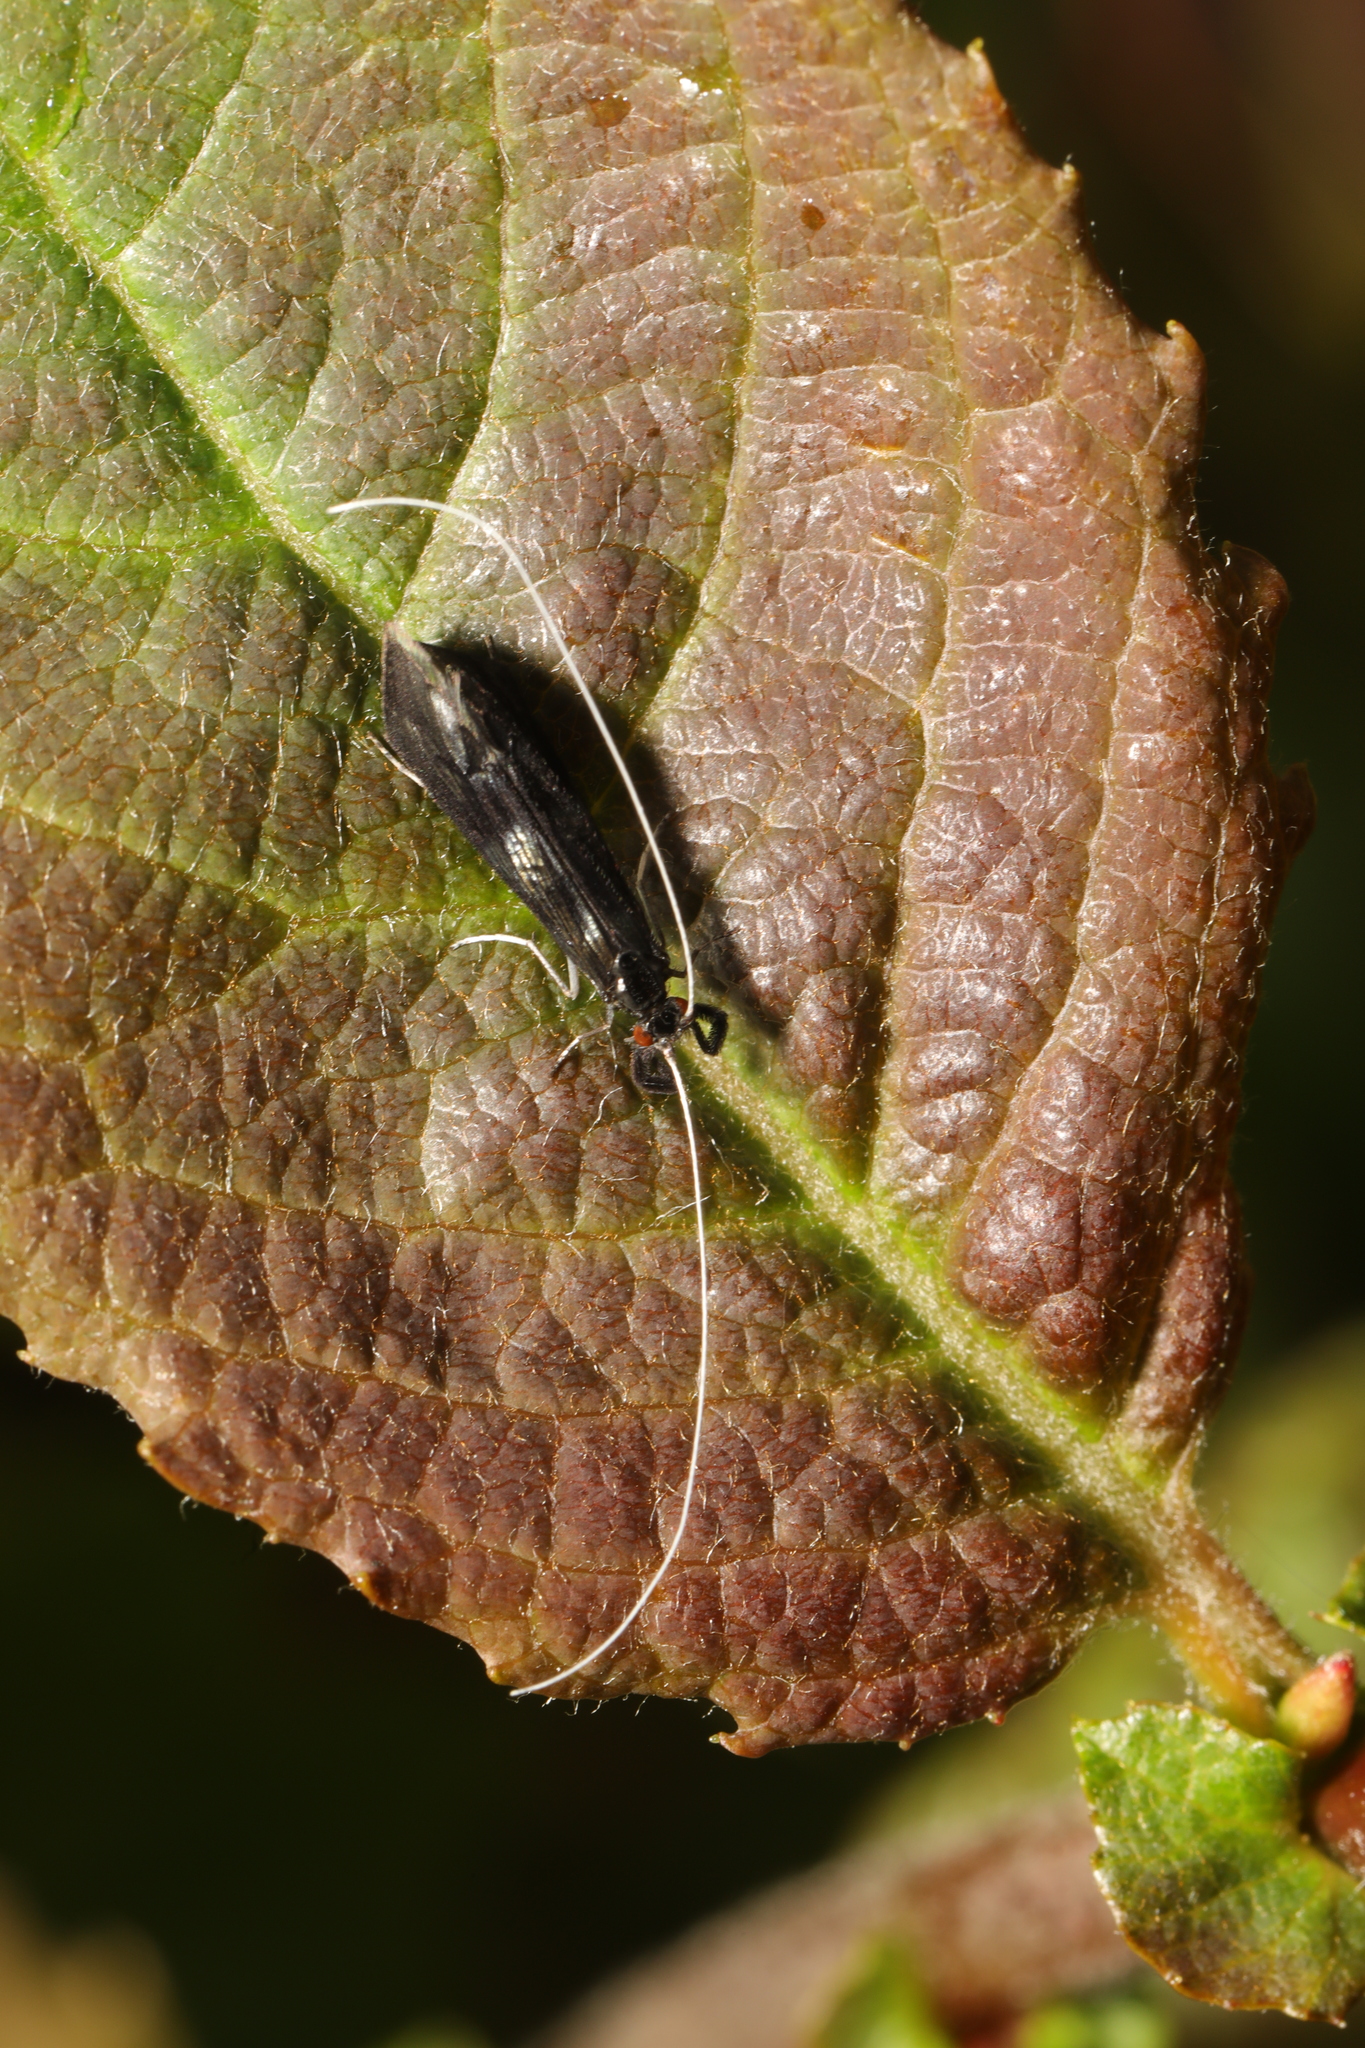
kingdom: Animalia
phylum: Arthropoda
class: Insecta
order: Trichoptera
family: Leptoceridae
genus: Mystacides
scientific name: Mystacides azureus
